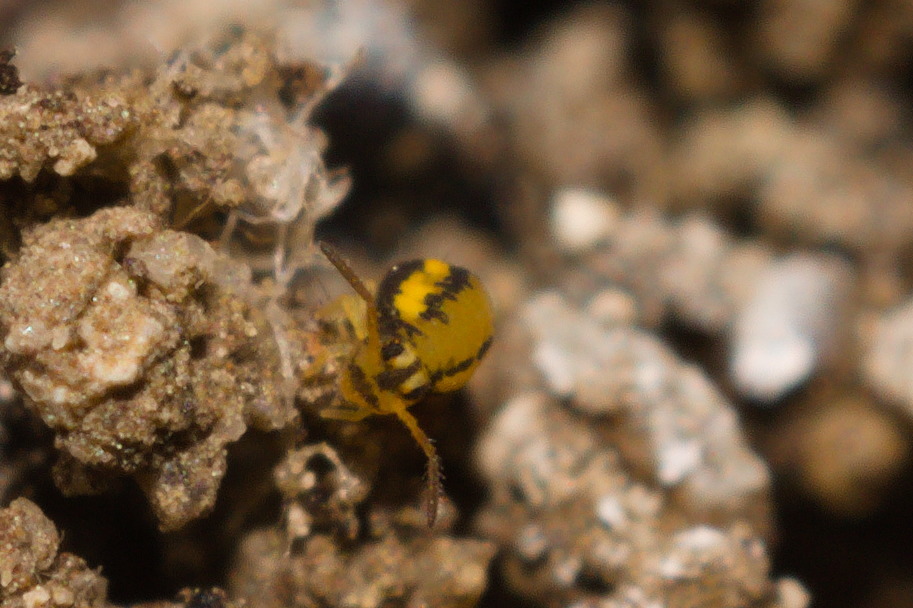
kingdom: Animalia
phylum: Arthropoda
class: Collembola
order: Symphypleona
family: Katiannidae
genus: Sminthurinus
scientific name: Sminthurinus elegans
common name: Globular springtail
